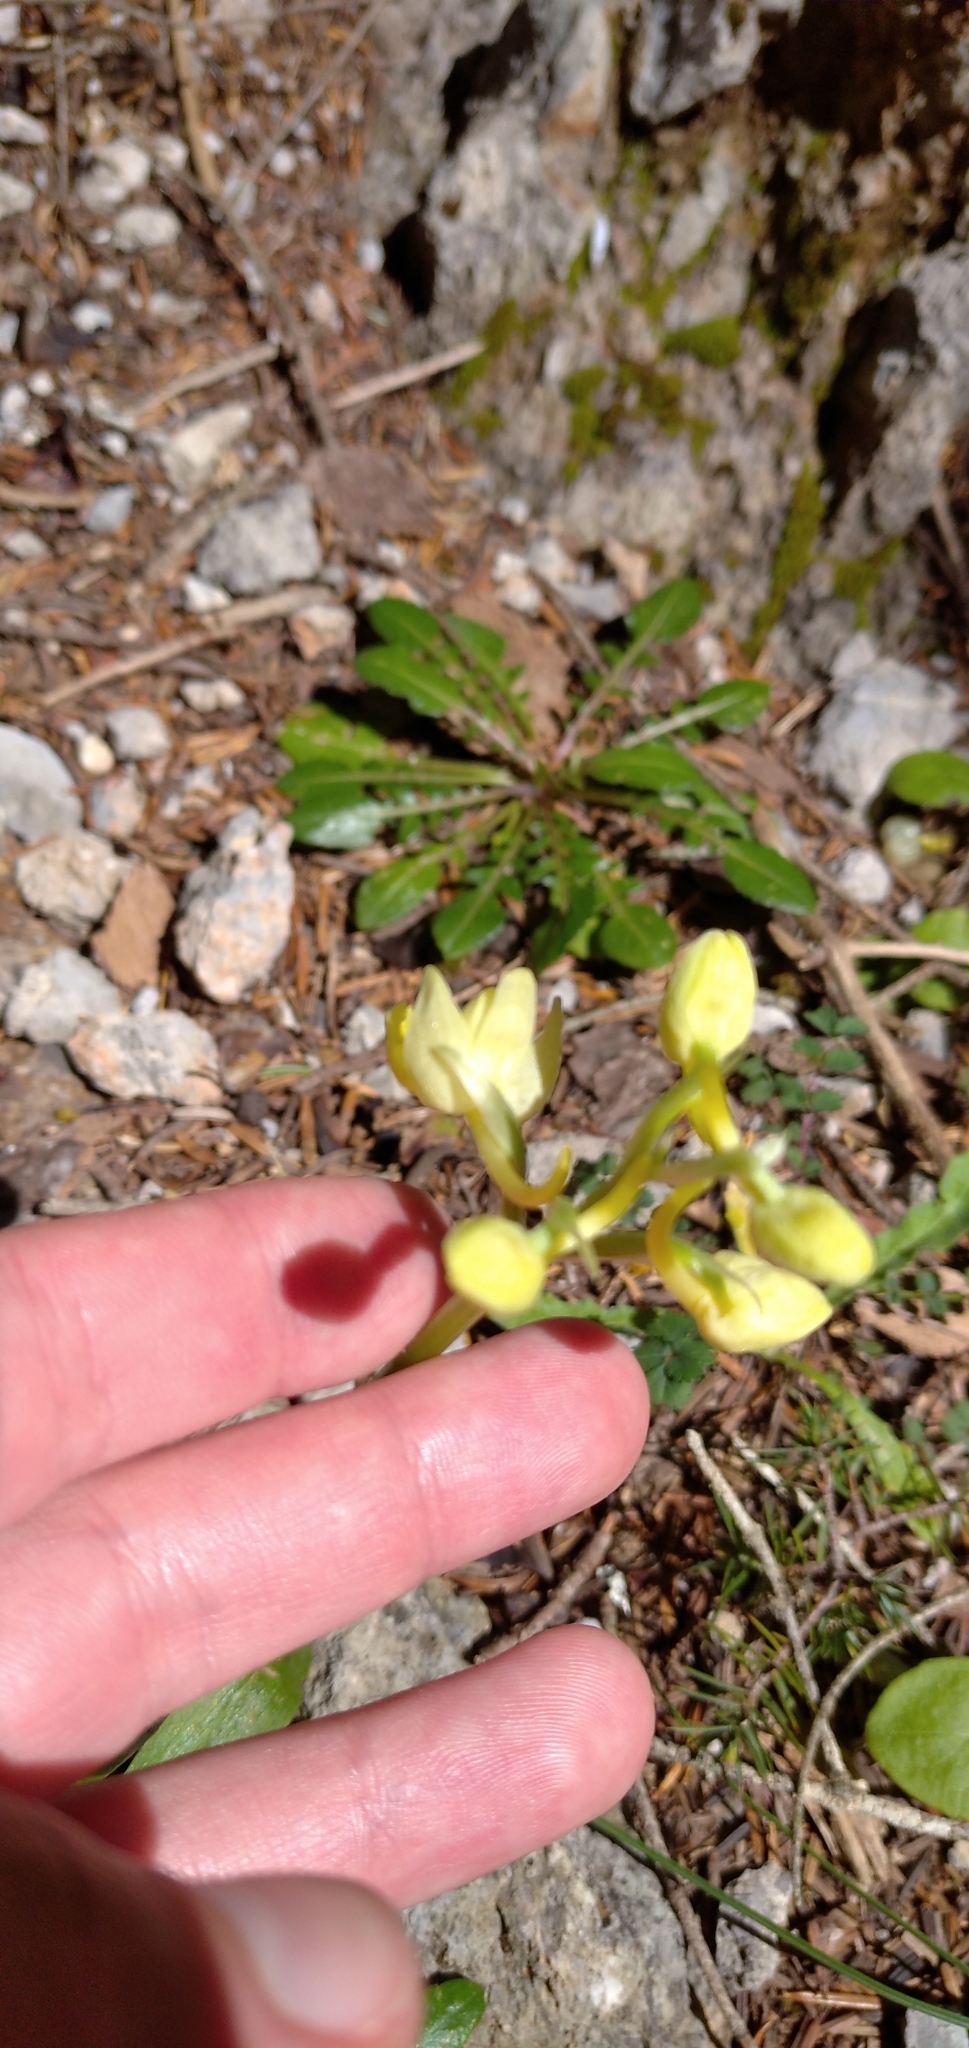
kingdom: Plantae
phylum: Tracheophyta
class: Liliopsida
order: Asparagales
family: Orchidaceae
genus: Orchis
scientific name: Orchis pauciflora
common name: Few-flowered orchid
